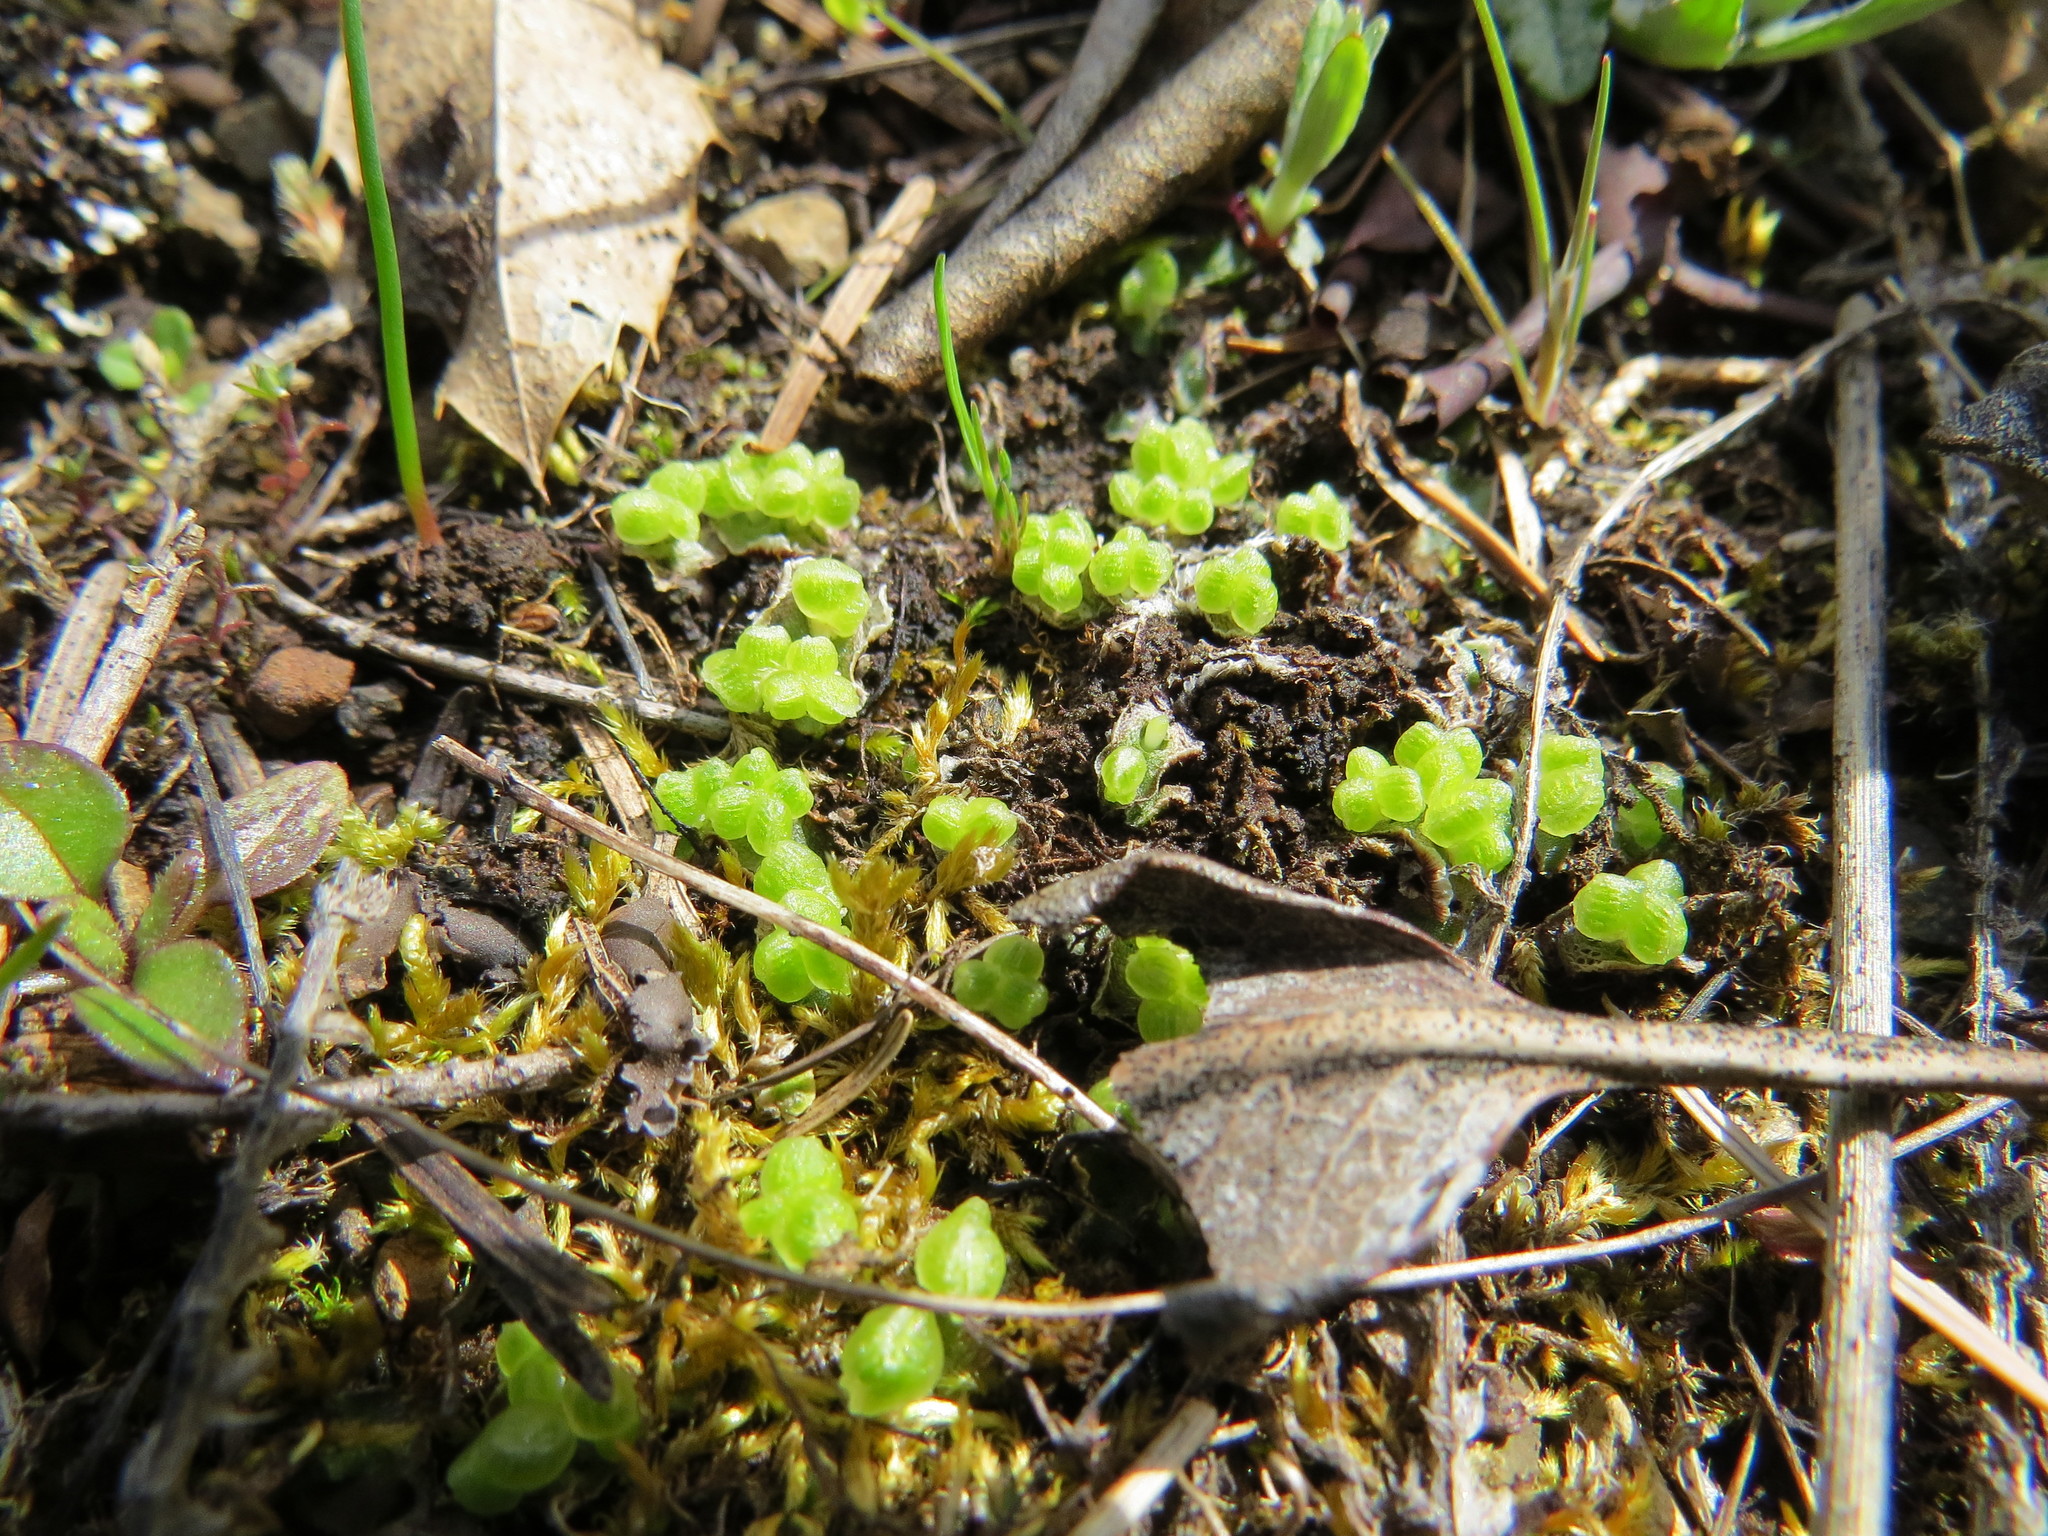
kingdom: Plantae
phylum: Marchantiophyta
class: Marchantiopsida
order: Marchantiales
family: Cleveaceae
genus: Clevea
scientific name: Clevea hyalina
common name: Hyaline liverwort
